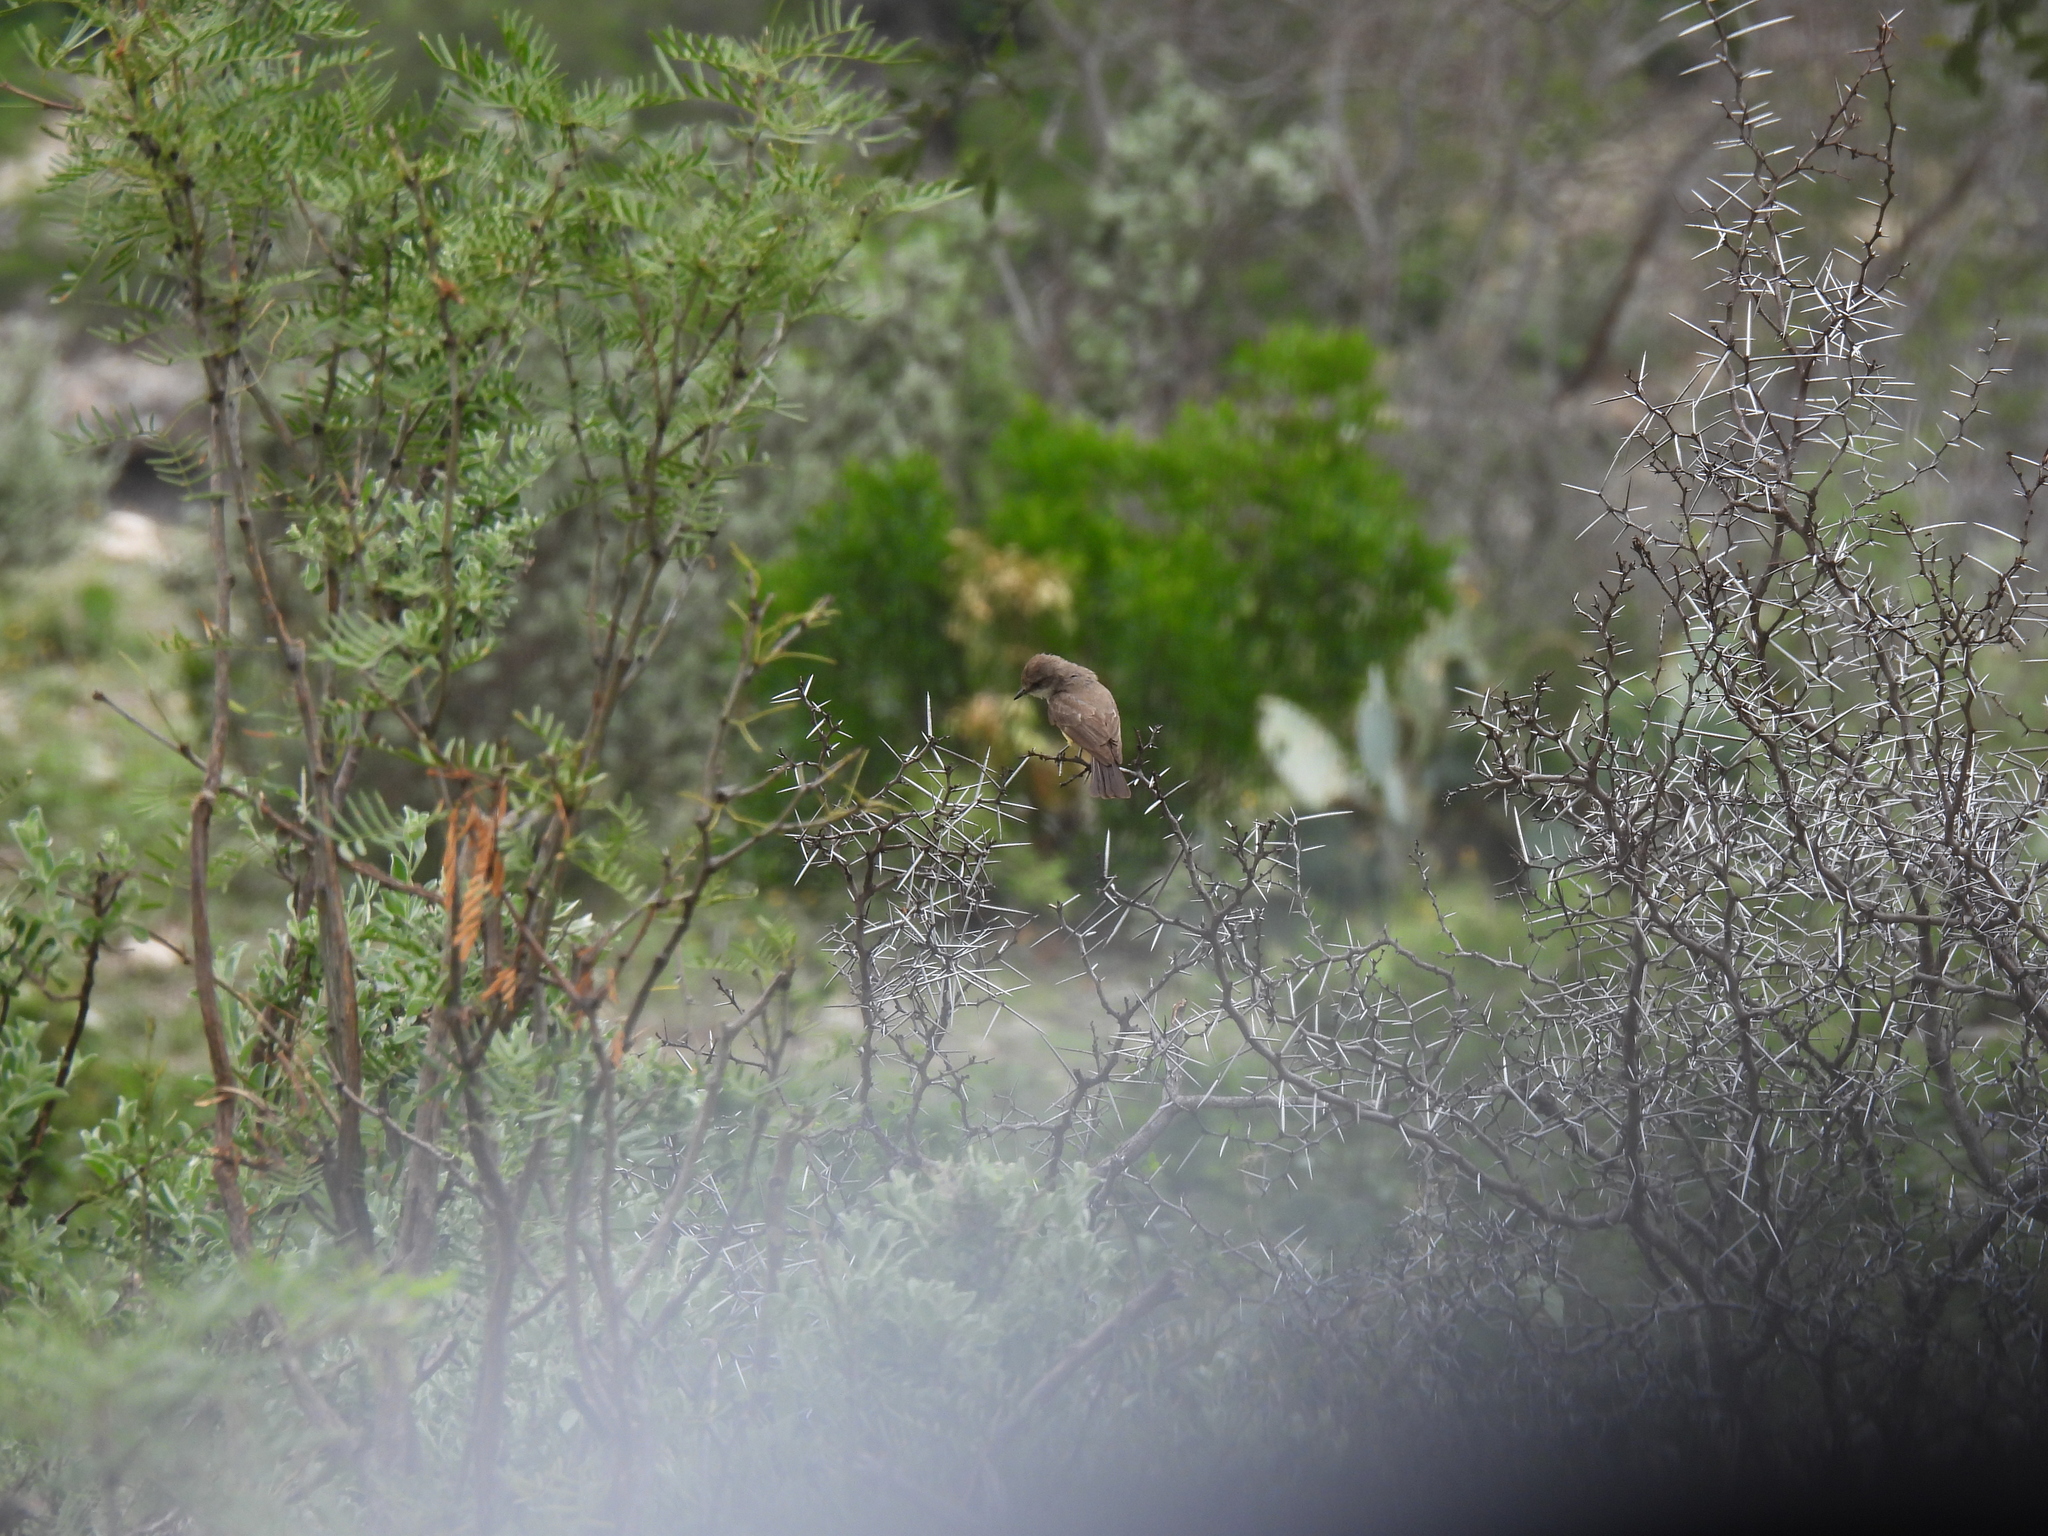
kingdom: Animalia
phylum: Chordata
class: Aves
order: Passeriformes
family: Tyrannidae
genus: Pyrocephalus
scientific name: Pyrocephalus rubinus
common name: Vermilion flycatcher
